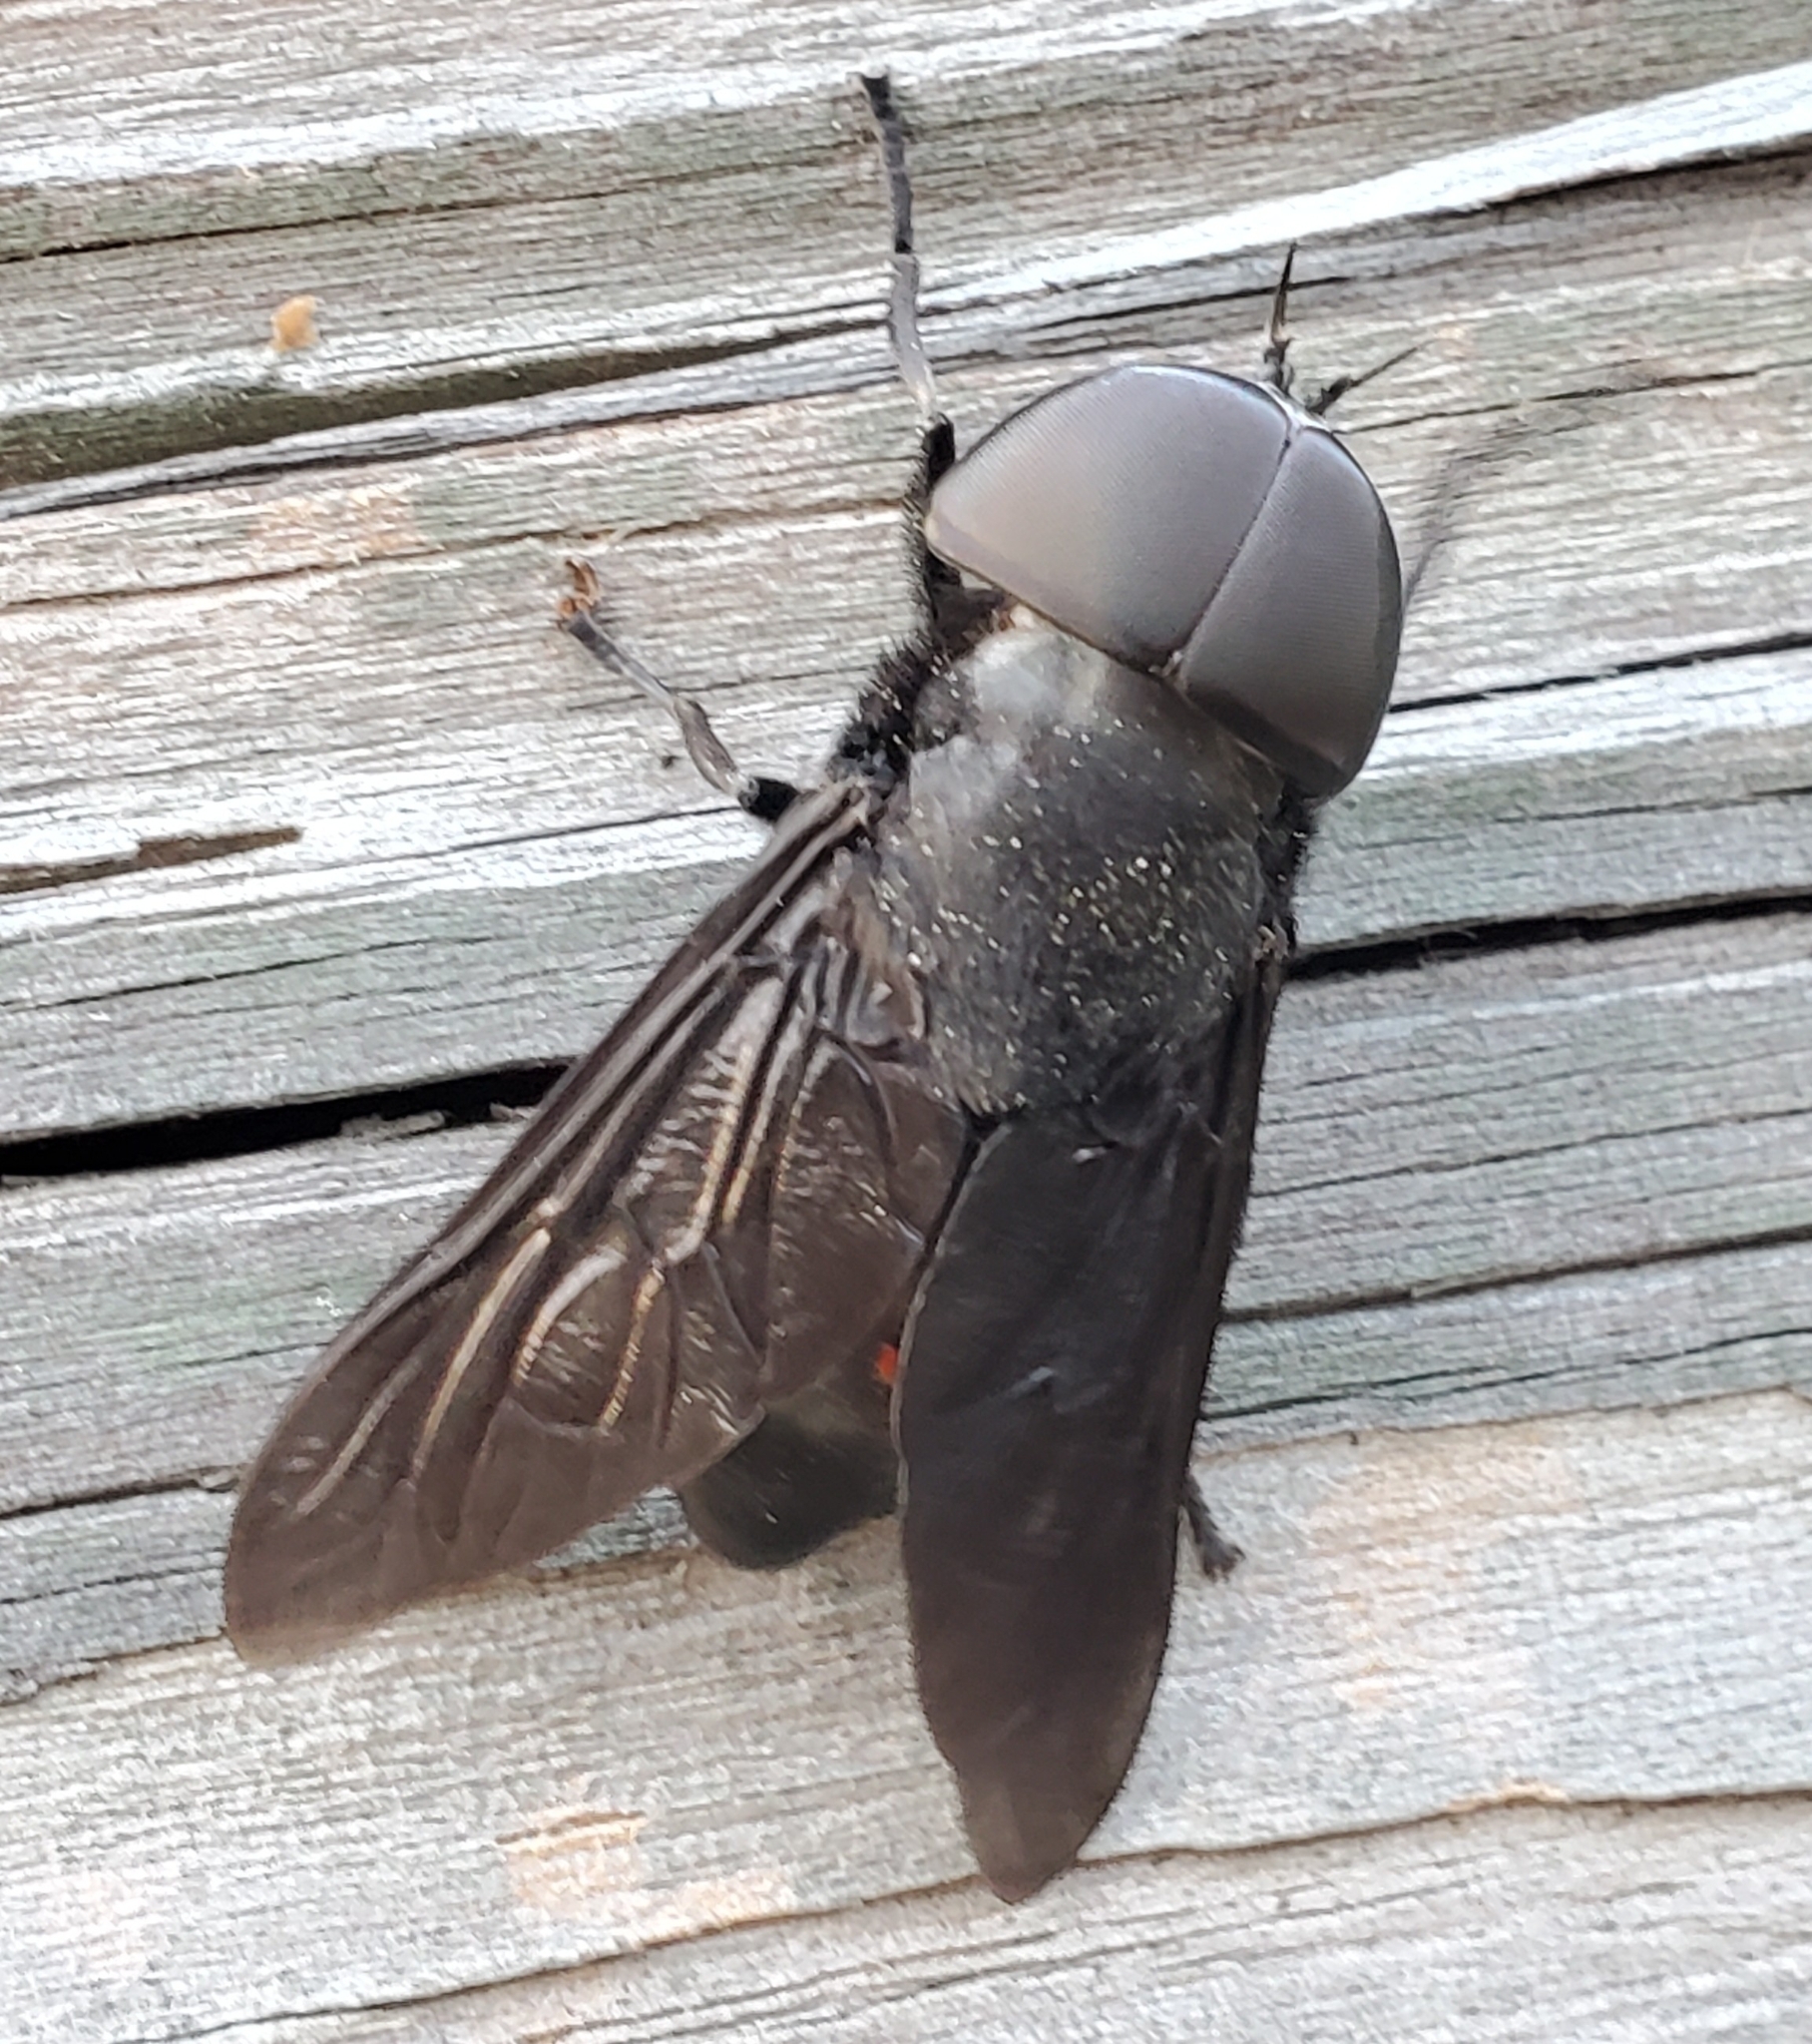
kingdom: Animalia
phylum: Arthropoda
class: Insecta
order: Diptera
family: Tabanidae
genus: Tabanus
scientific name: Tabanus atratus
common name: Black horse fly
